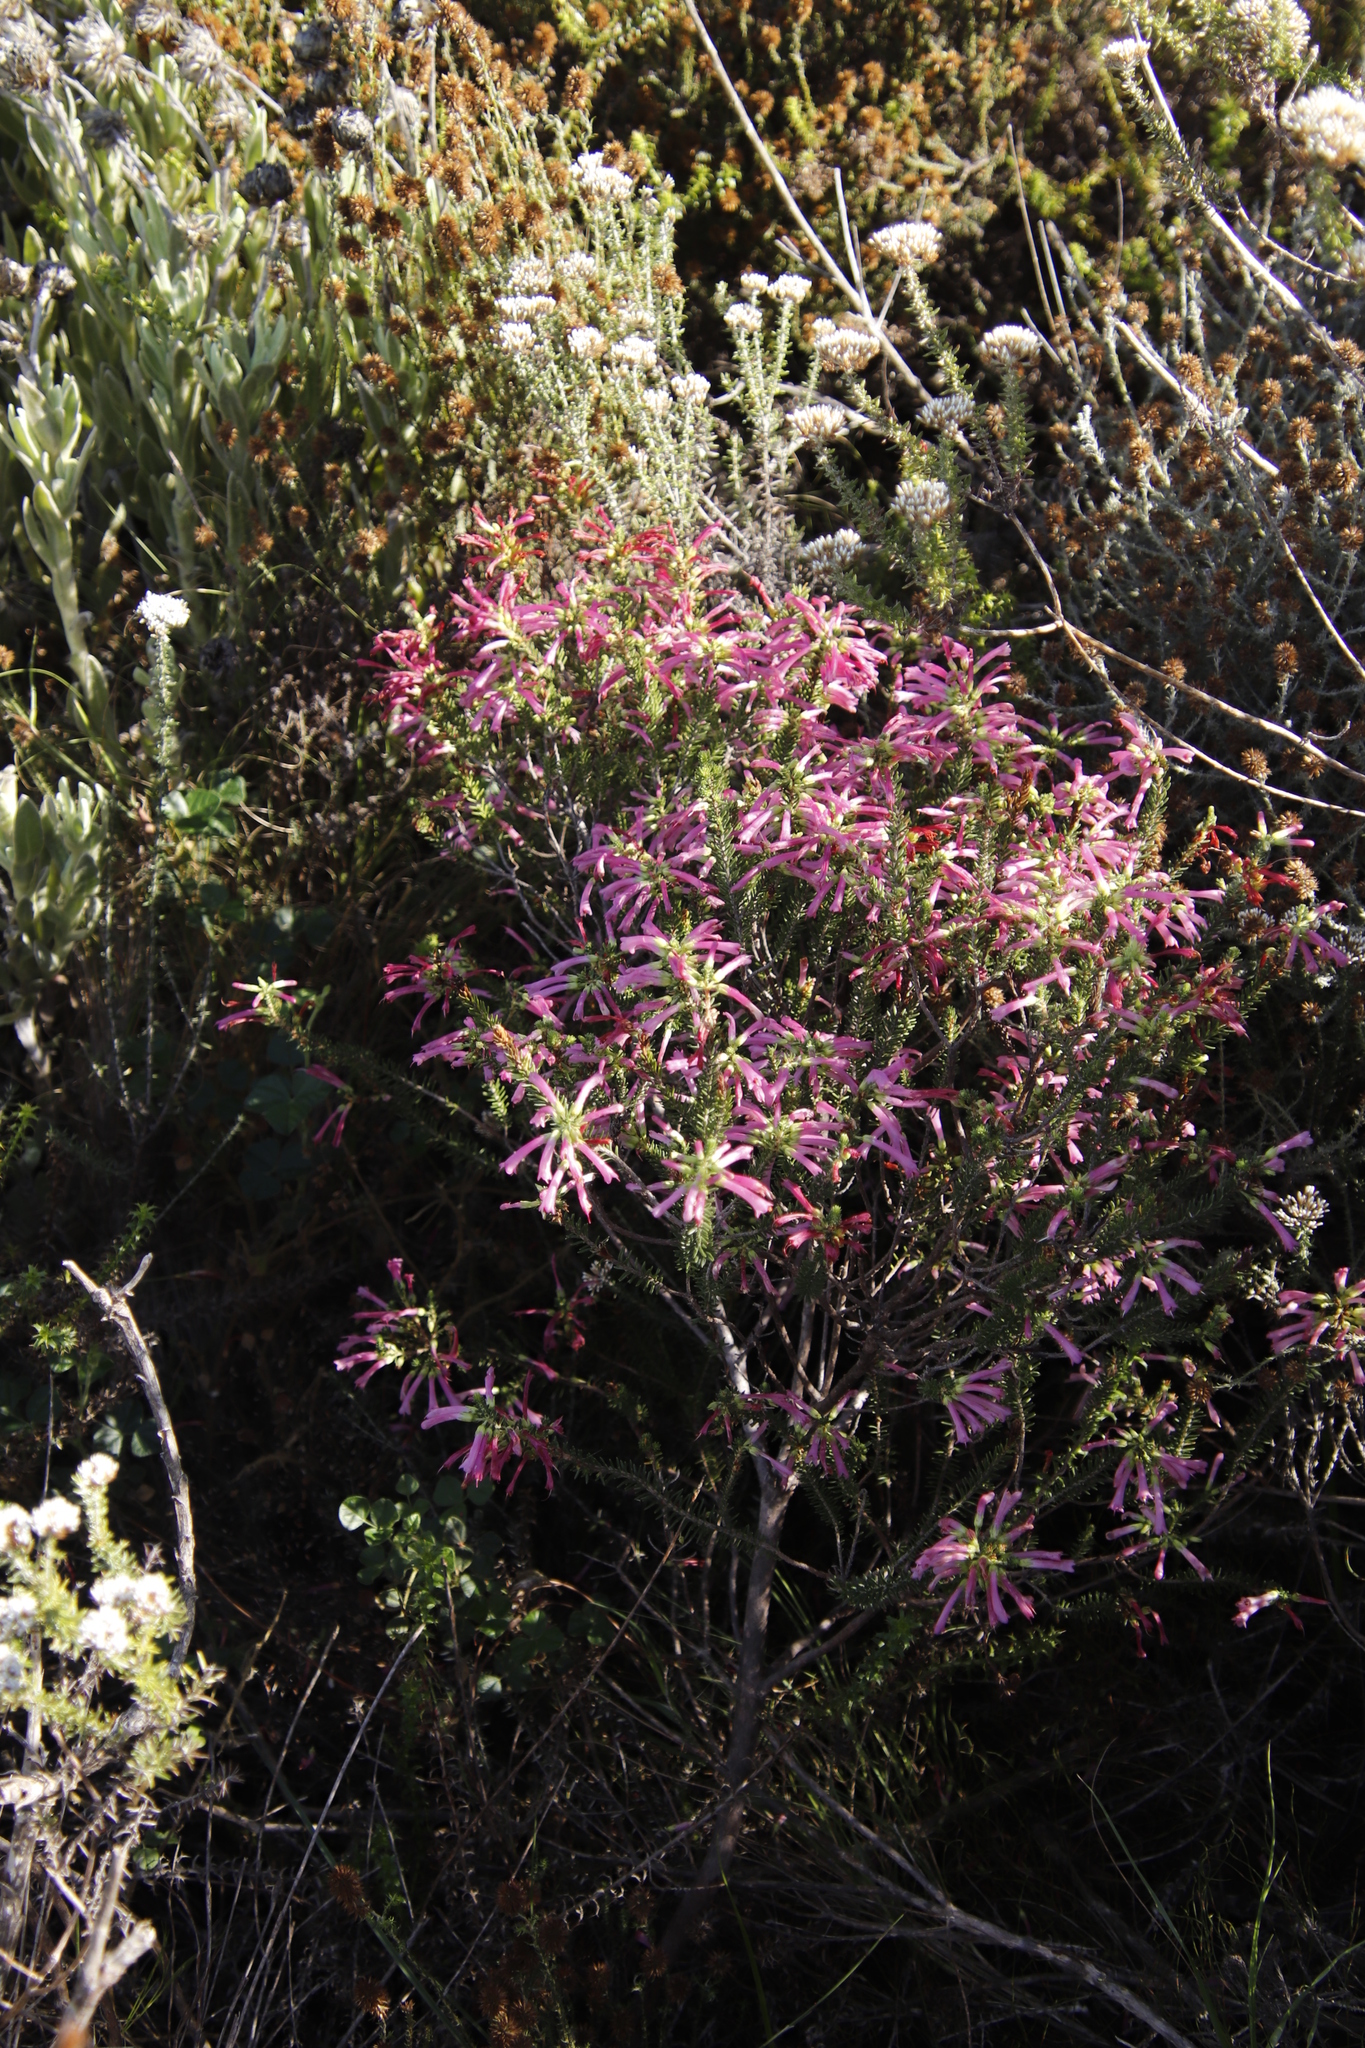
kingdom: Plantae
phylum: Tracheophyta
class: Magnoliopsida
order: Ericales
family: Ericaceae
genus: Erica
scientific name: Erica abietina
